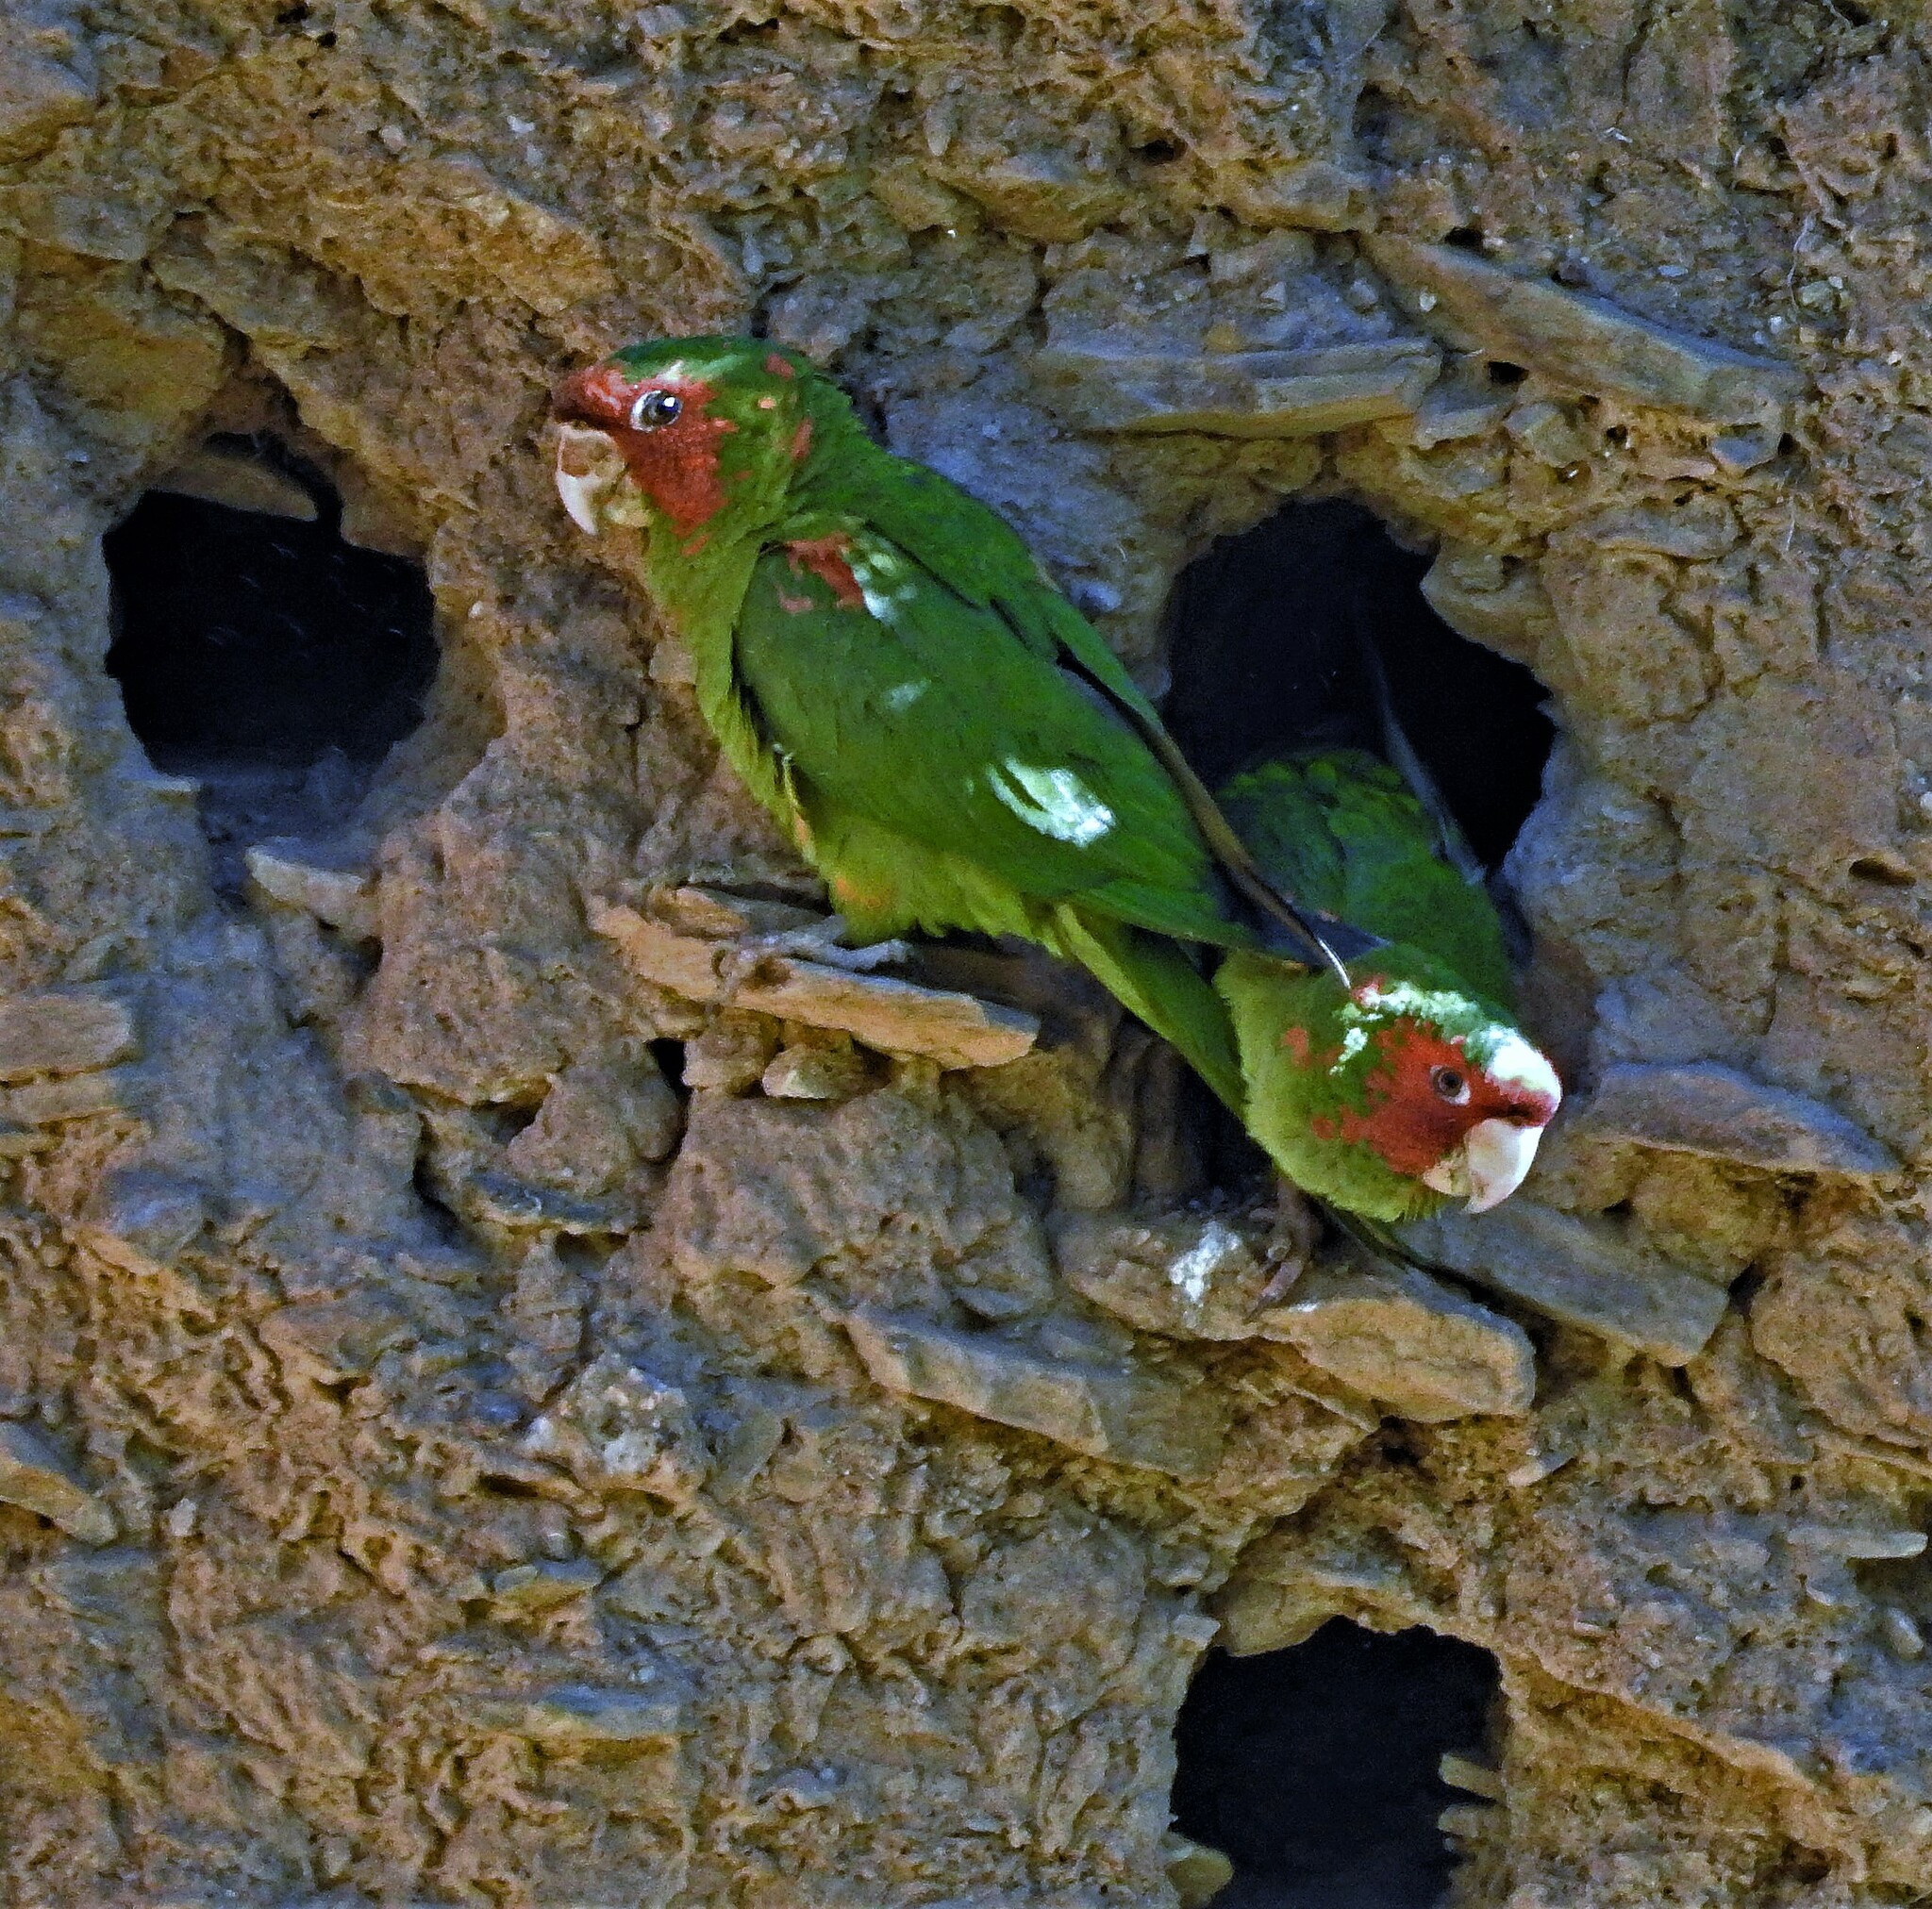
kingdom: Animalia
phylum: Chordata
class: Aves
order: Psittaciformes
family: Psittacidae
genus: Aratinga
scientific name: Aratinga mitrata
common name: Mitred parakeet
